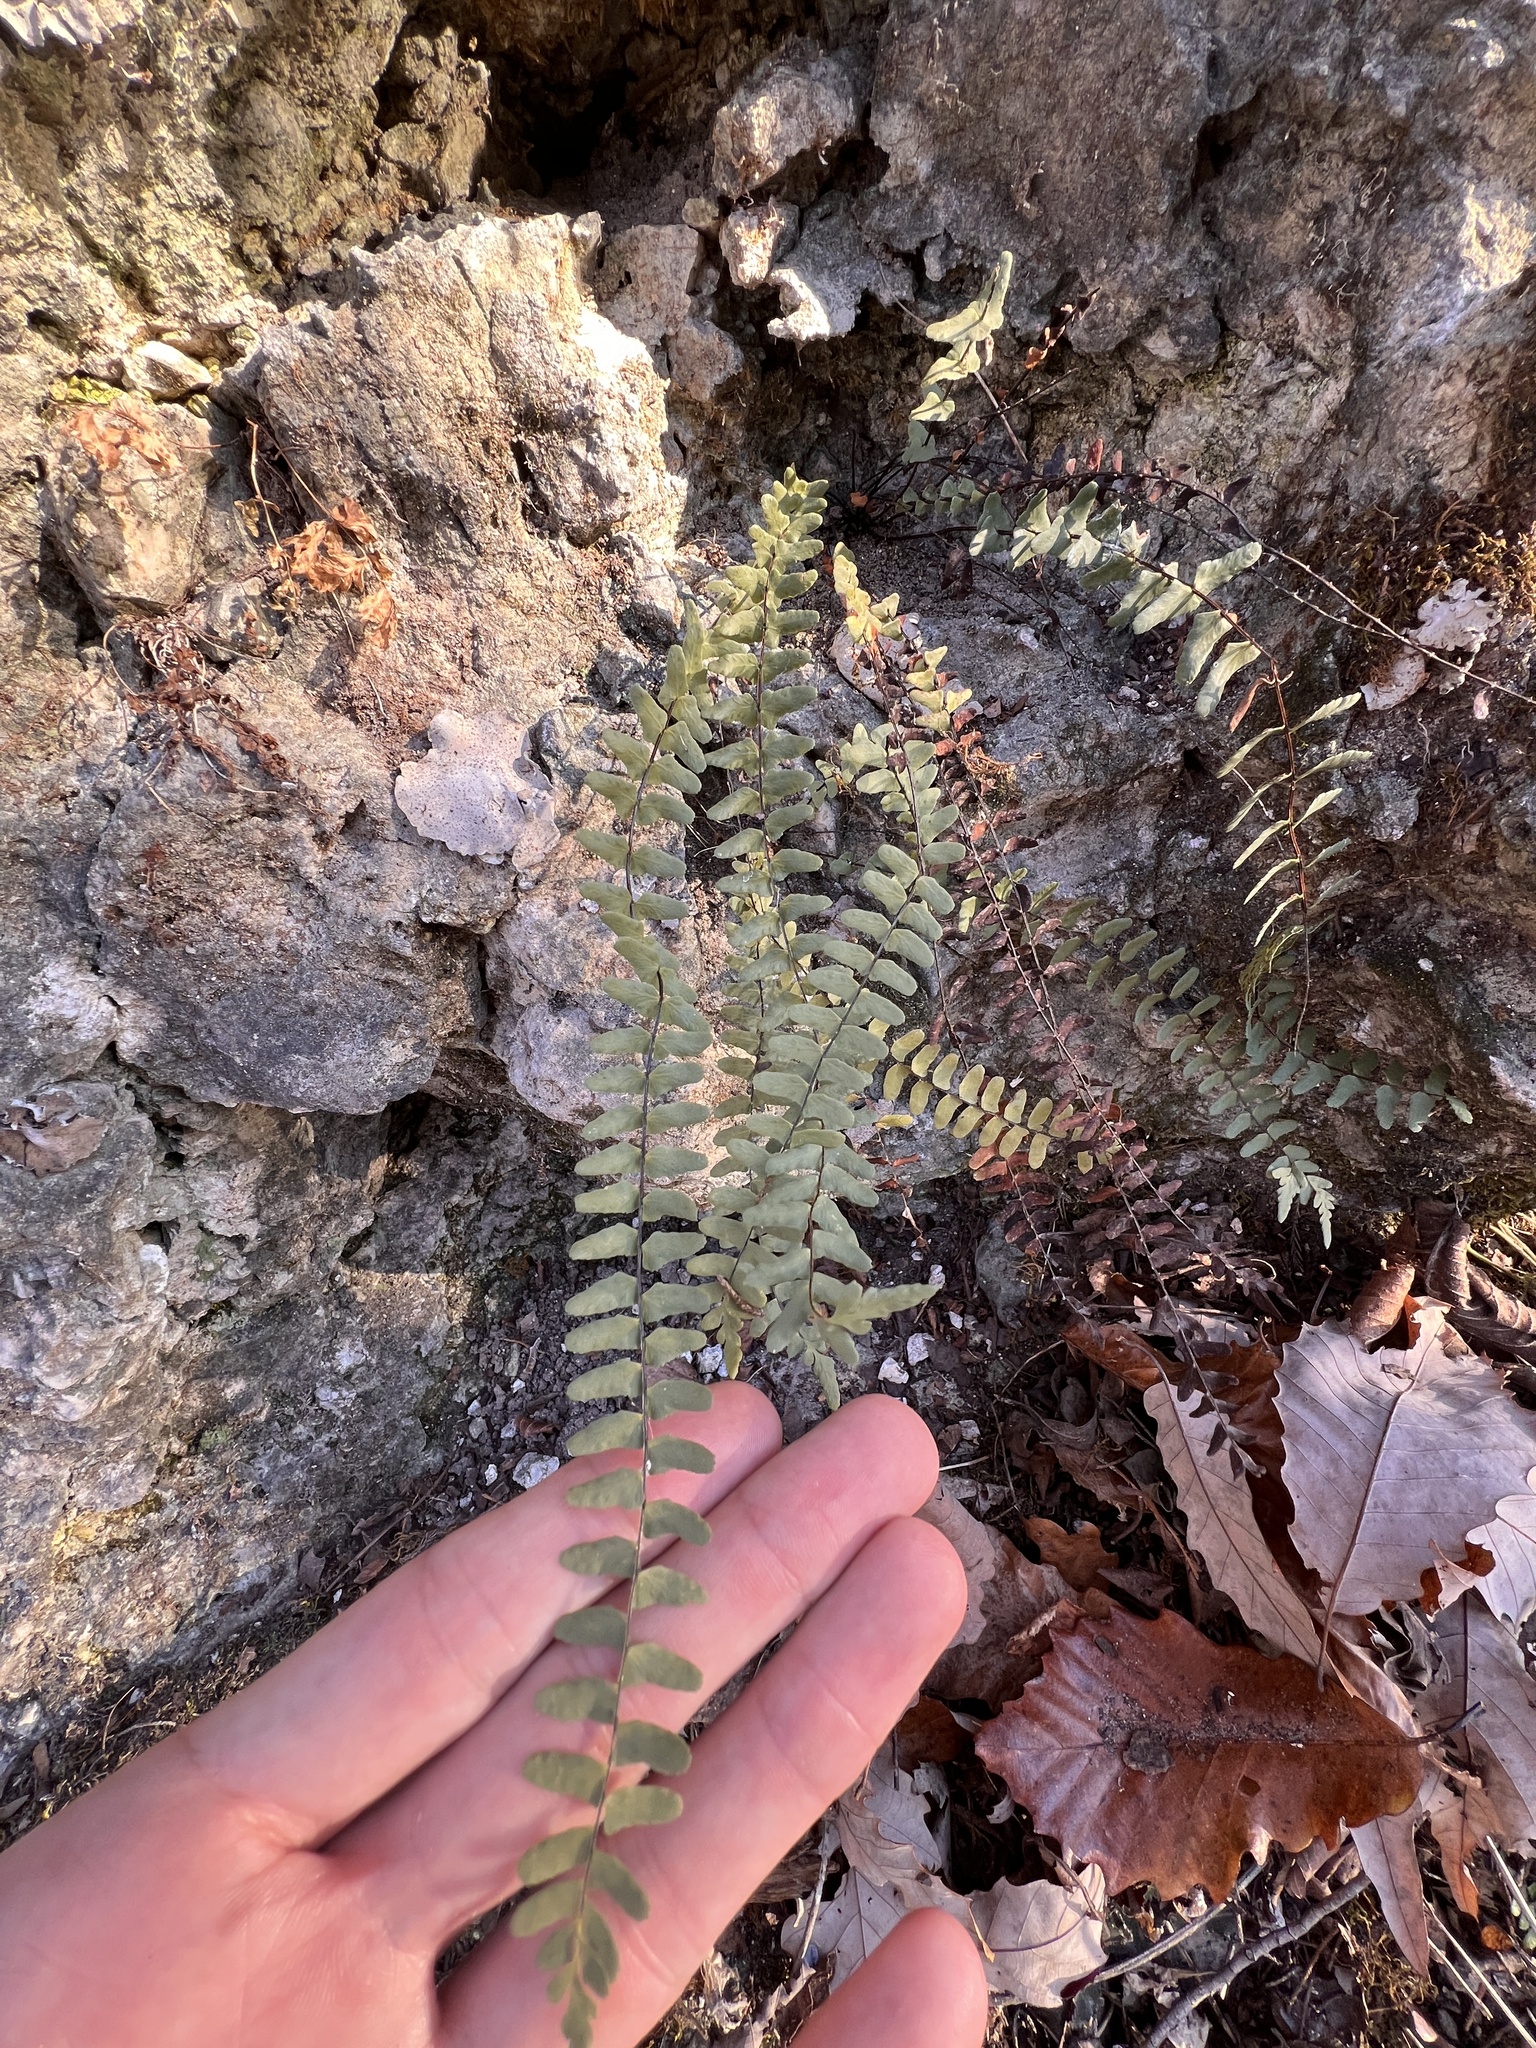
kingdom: Plantae
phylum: Tracheophyta
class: Polypodiopsida
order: Polypodiales
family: Aspleniaceae
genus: Asplenium
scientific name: Asplenium resiliens
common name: Blackstem spleenwort
